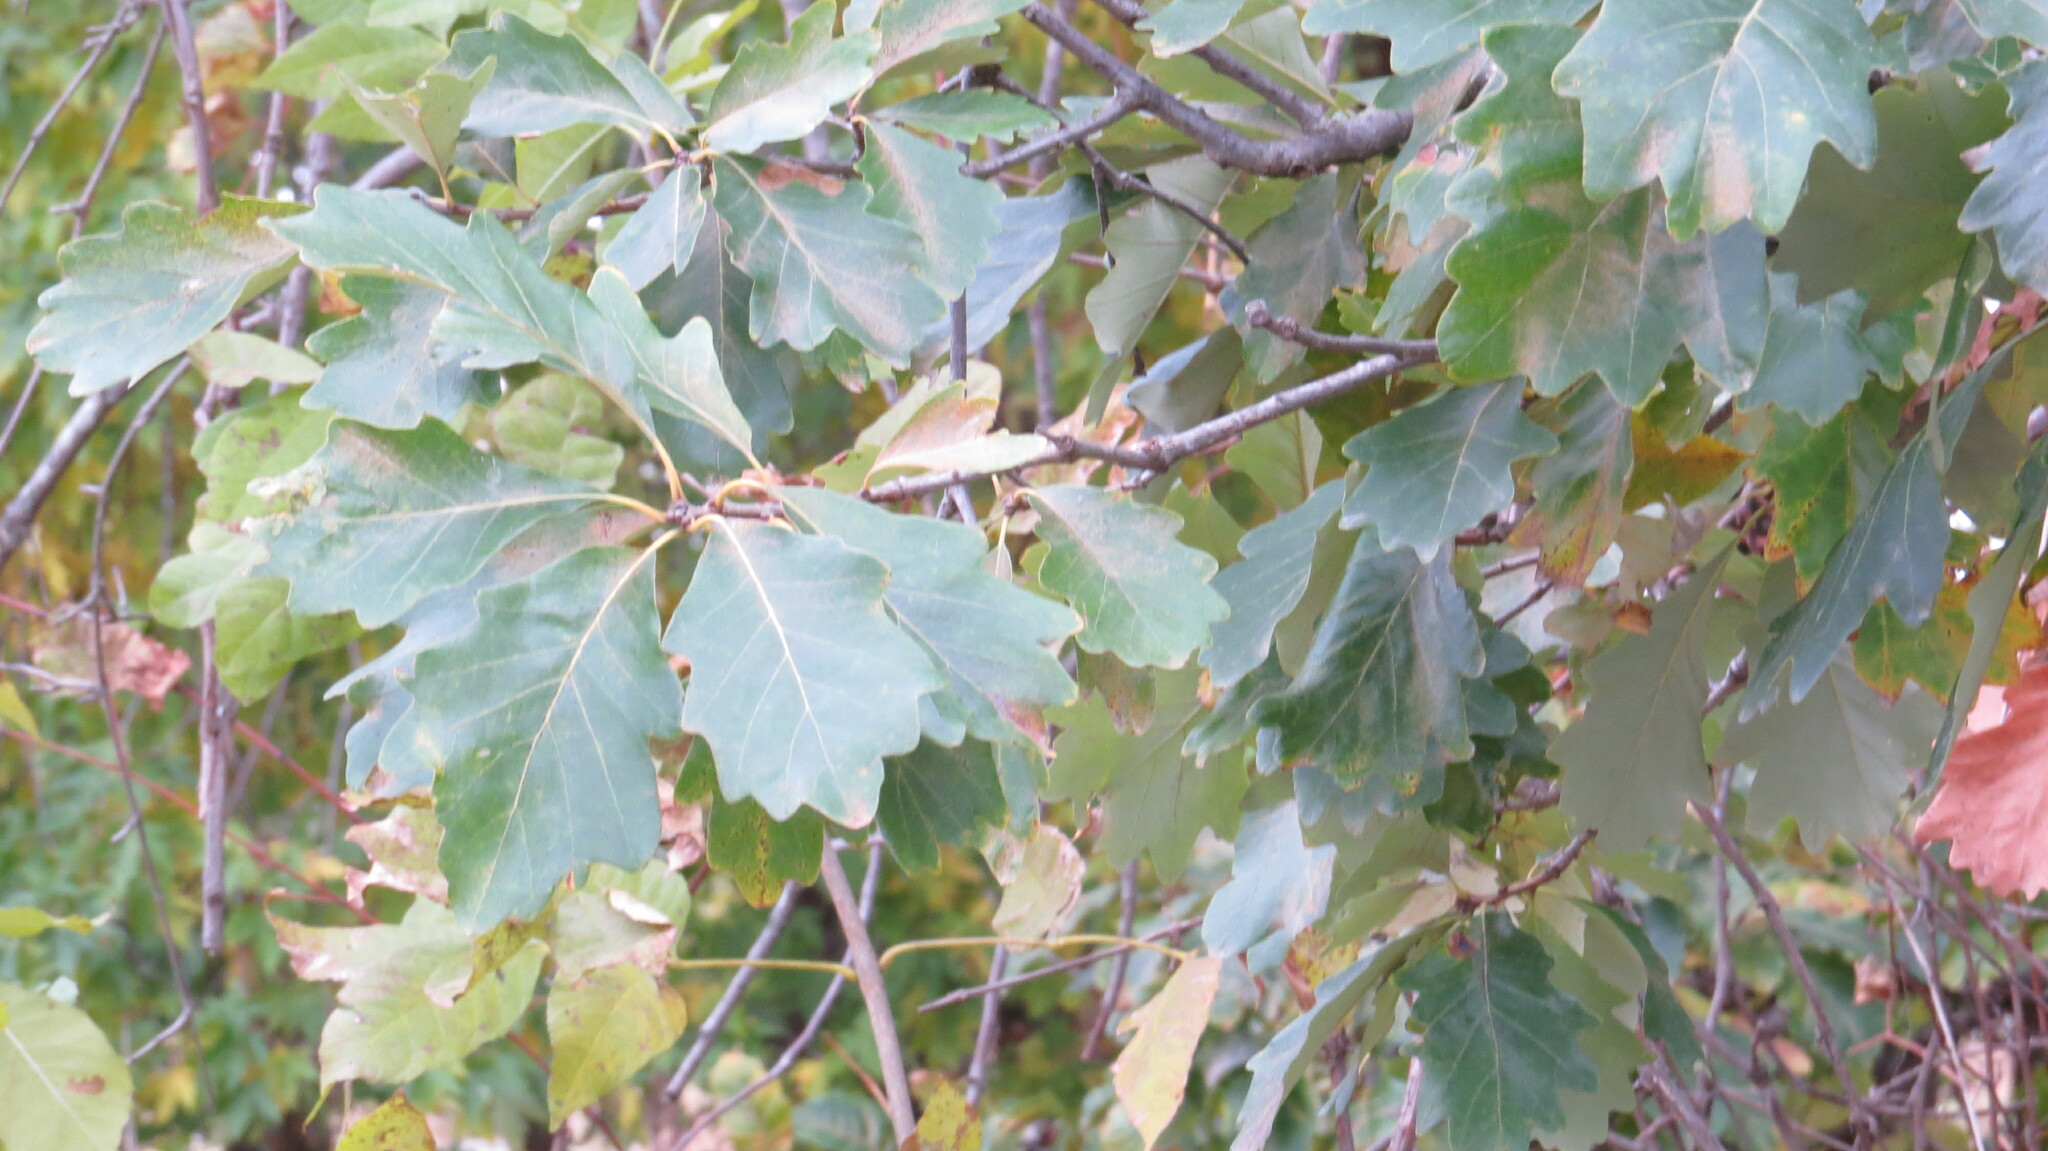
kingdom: Plantae
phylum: Tracheophyta
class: Magnoliopsida
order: Fagales
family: Fagaceae
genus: Quercus
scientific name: Quercus macrocarpa
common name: Bur oak
